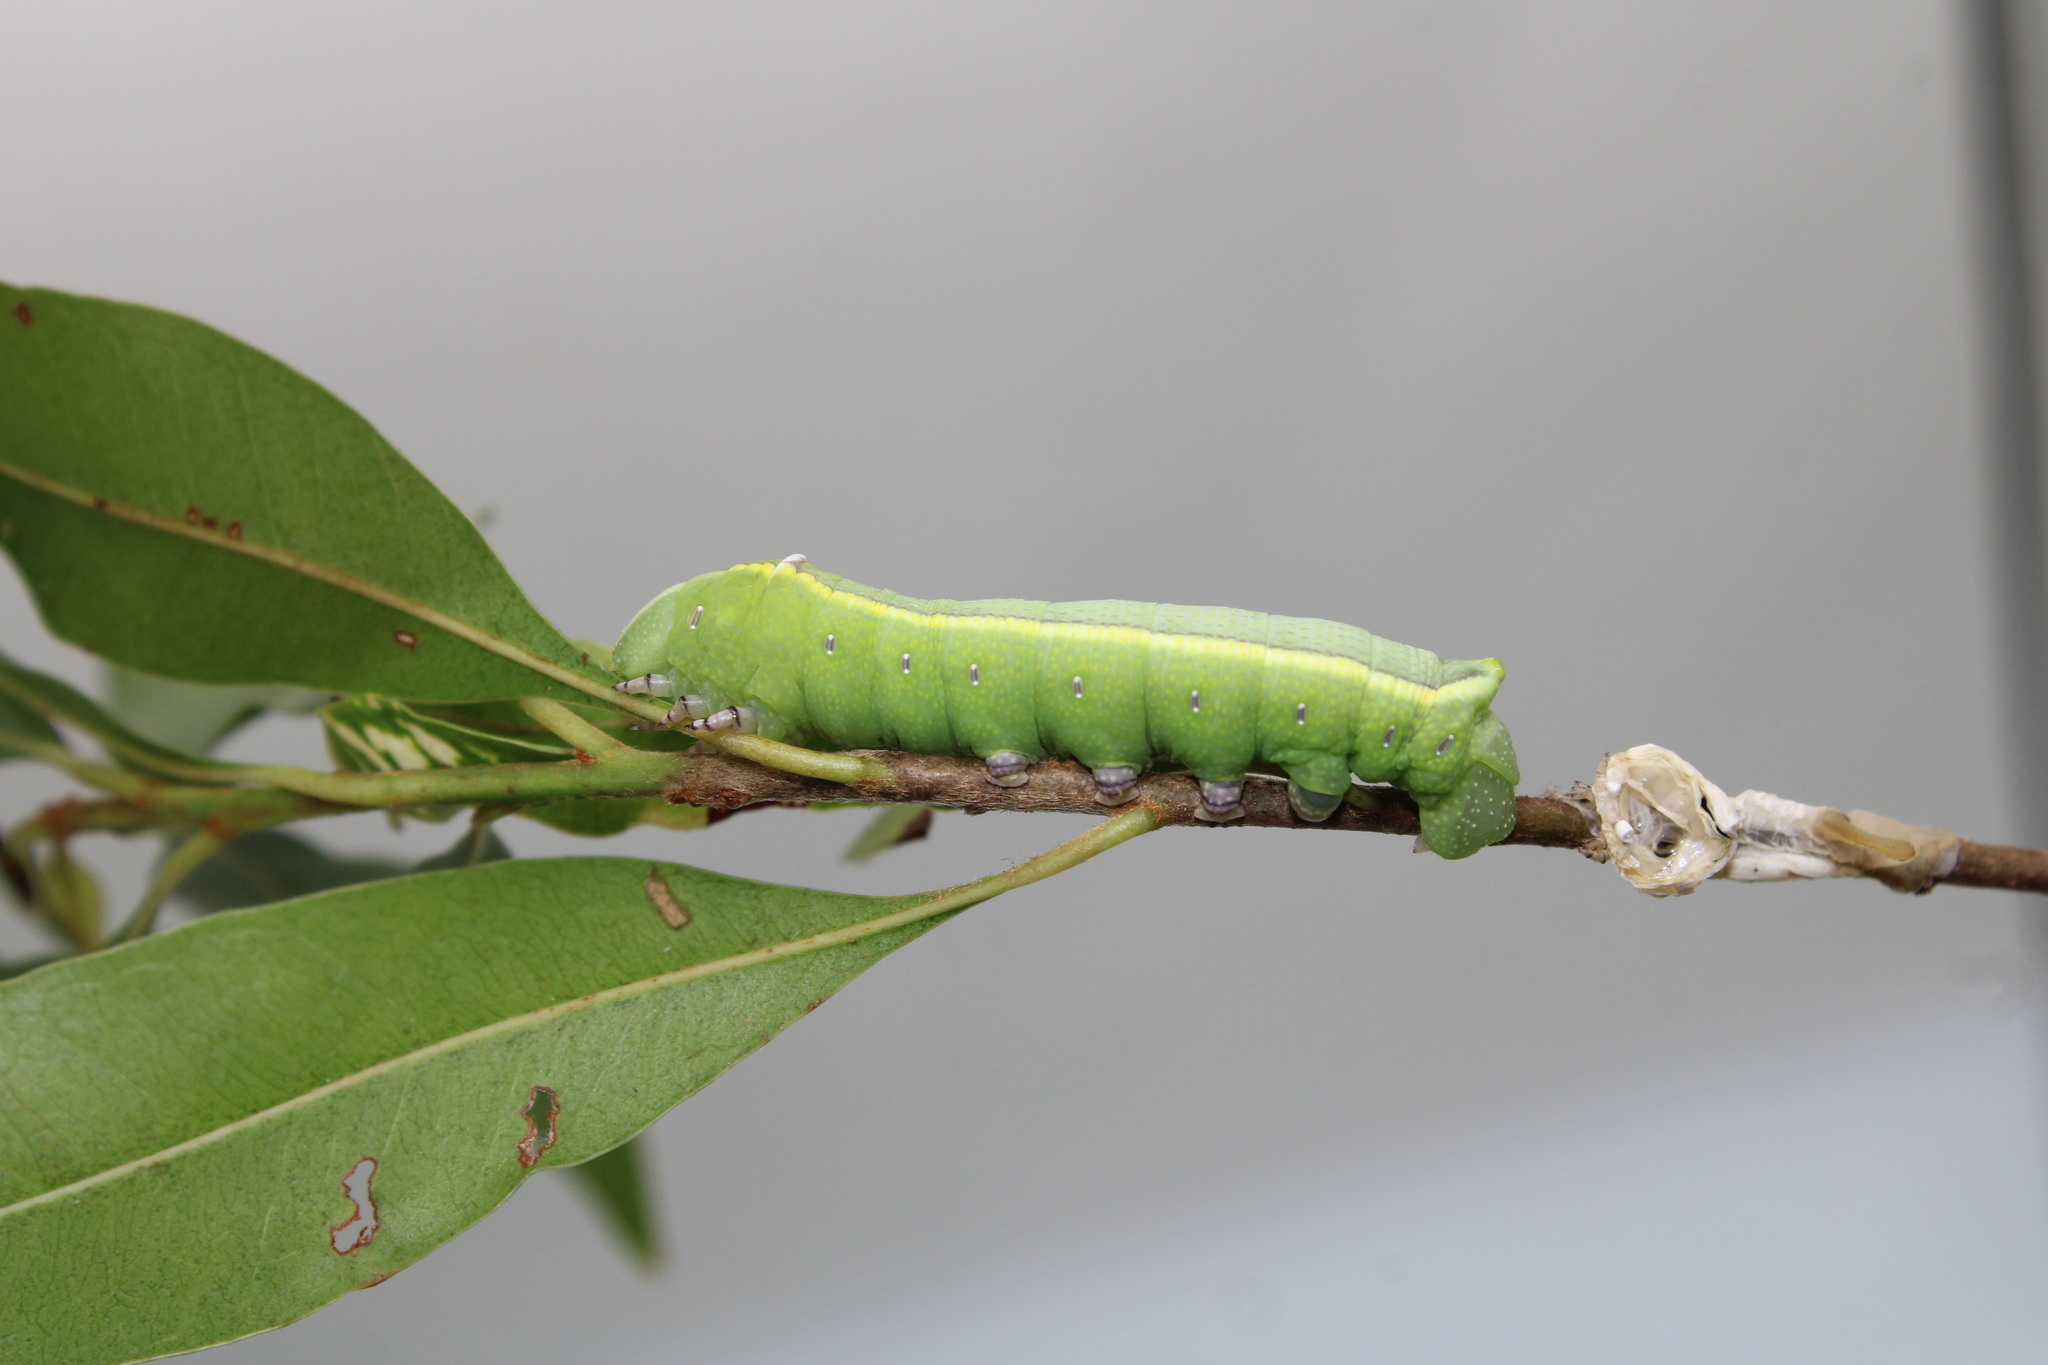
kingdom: Animalia
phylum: Arthropoda
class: Insecta
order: Lepidoptera
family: Sphingidae
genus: Erinnyis
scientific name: Erinnyis ello
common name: Ello sphinx
